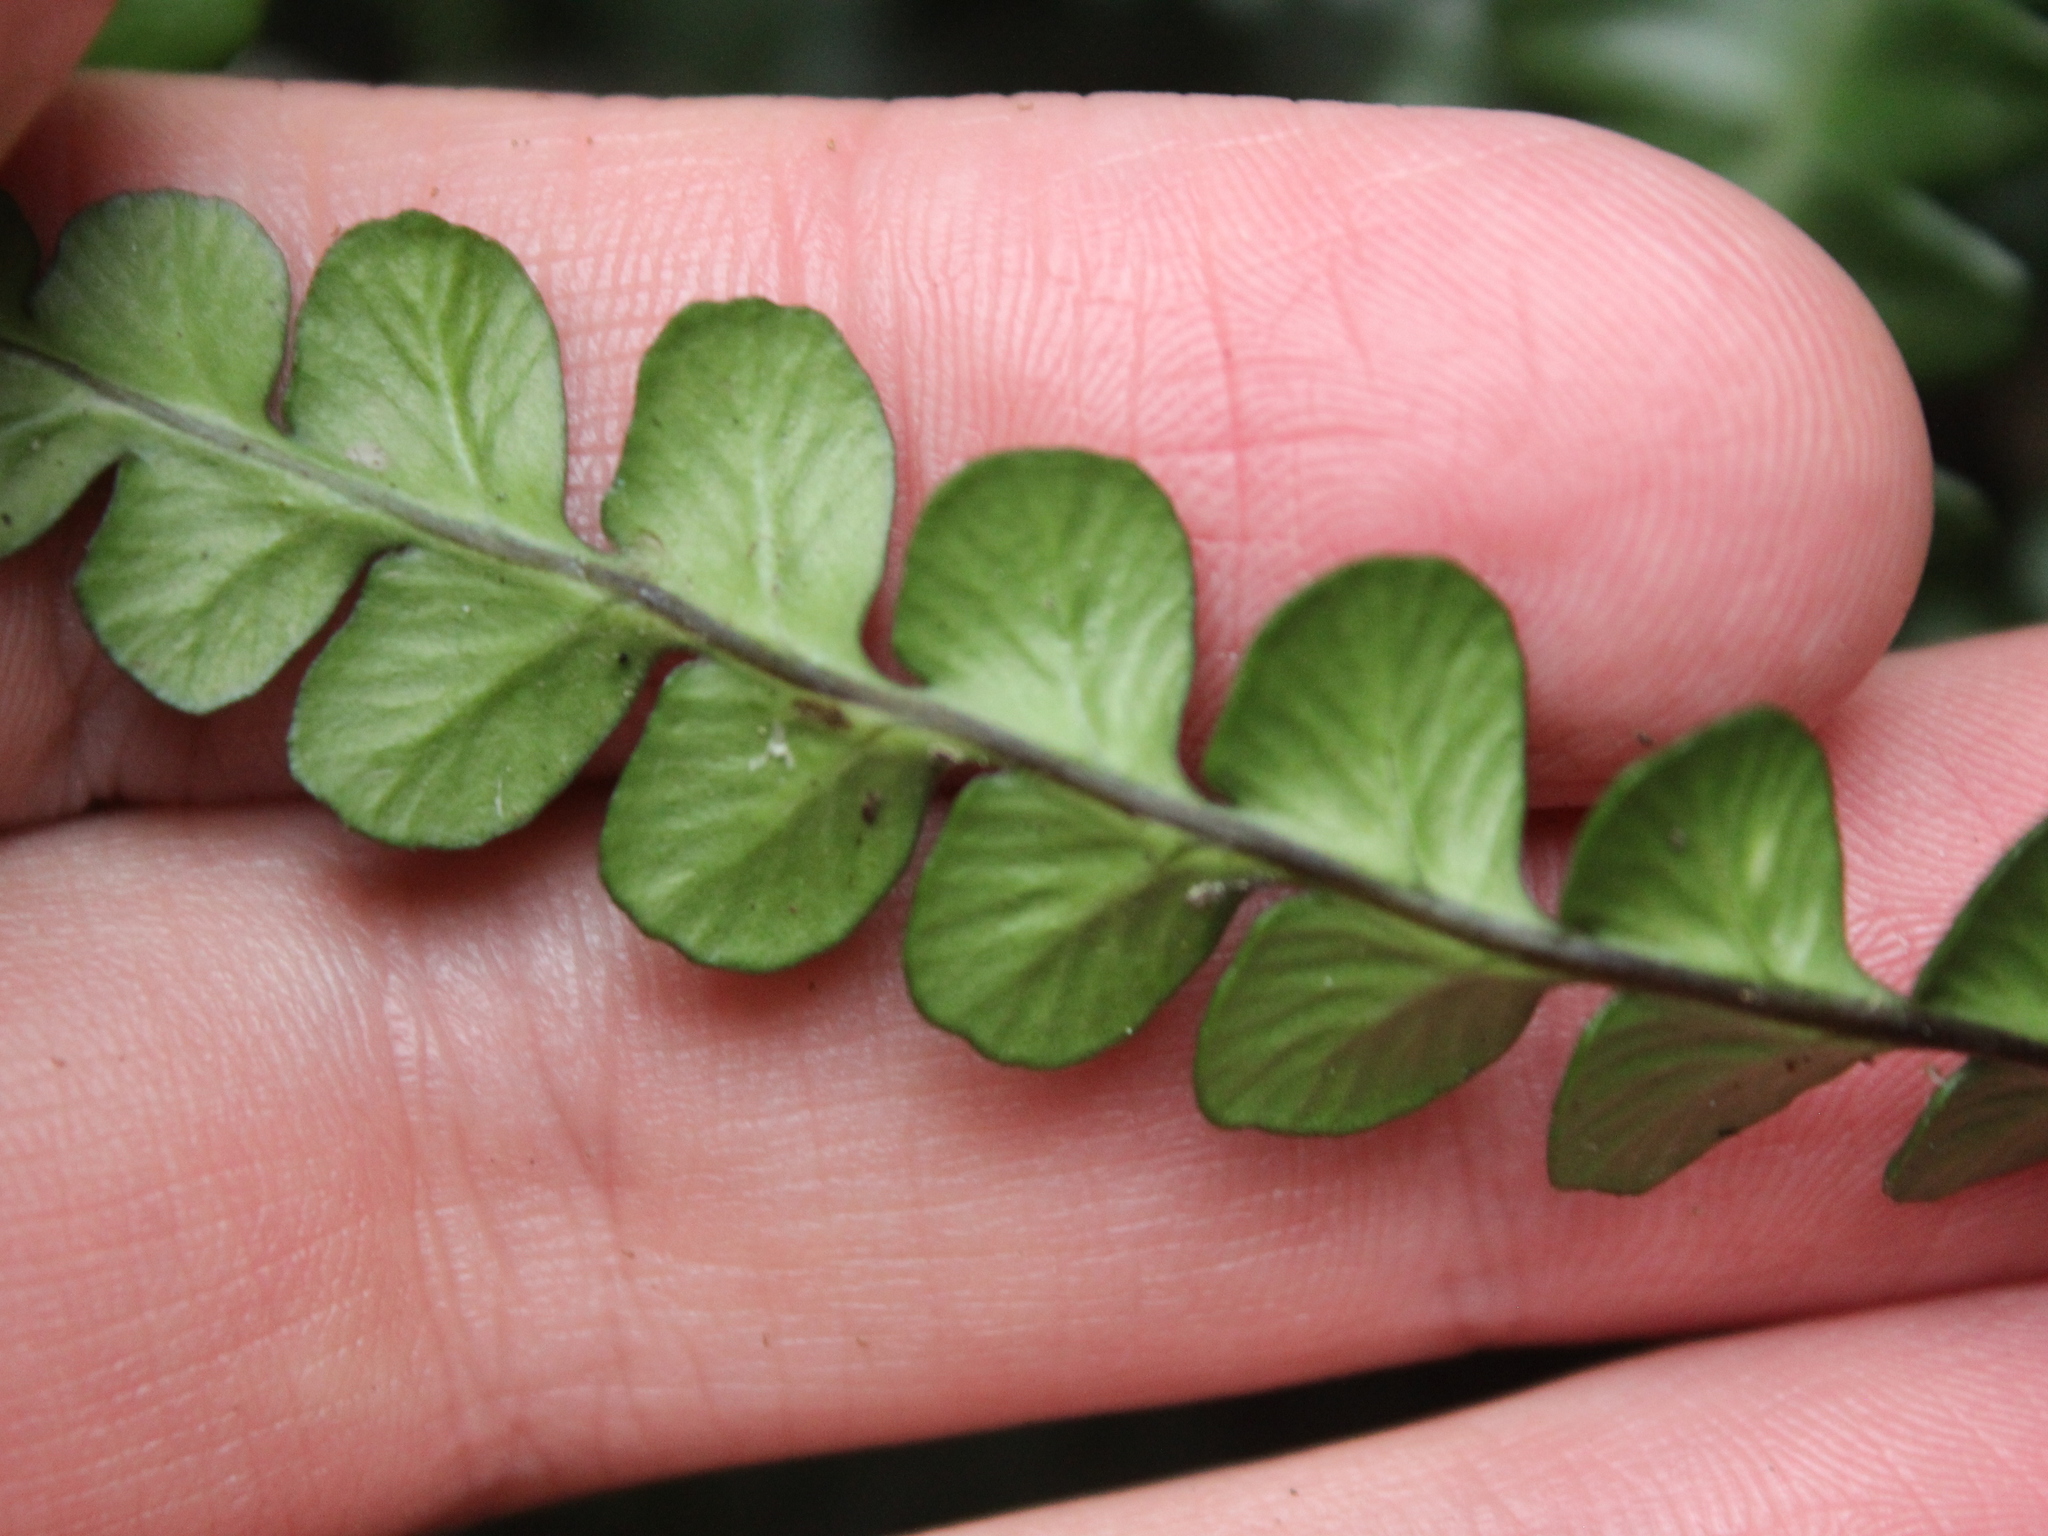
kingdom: Plantae
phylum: Tracheophyta
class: Polypodiopsida
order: Polypodiales
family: Blechnaceae
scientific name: Blechnaceae
